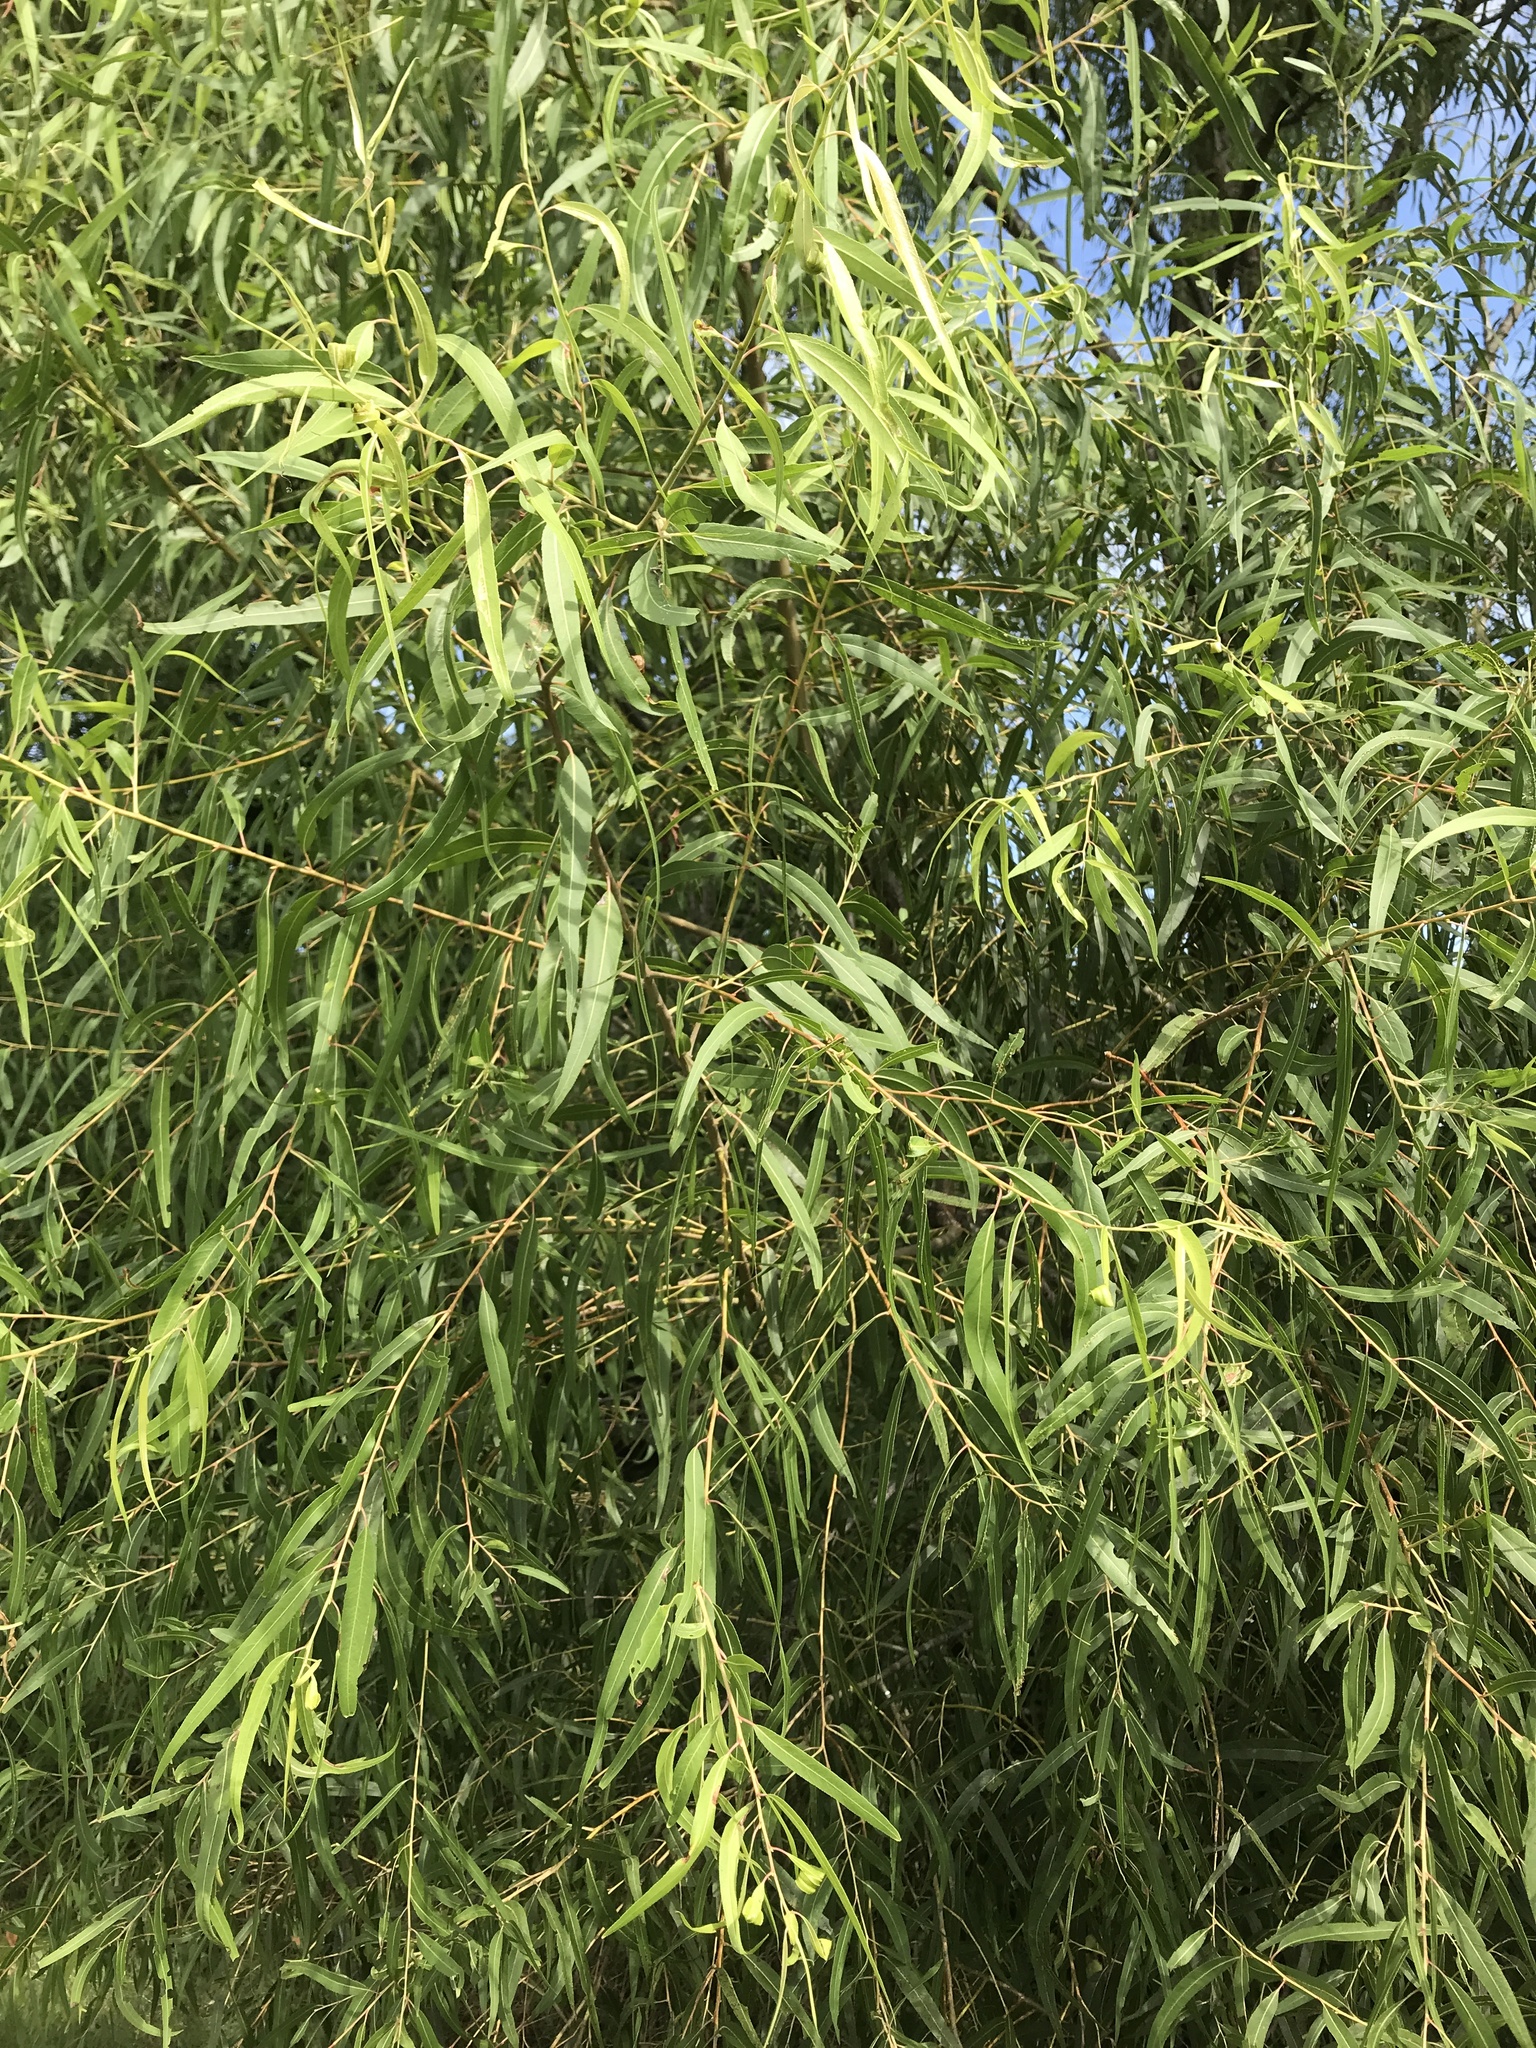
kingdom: Plantae
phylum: Tracheophyta
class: Magnoliopsida
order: Malpighiales
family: Salicaceae
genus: Salix
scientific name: Salix nigra
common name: Black willow
